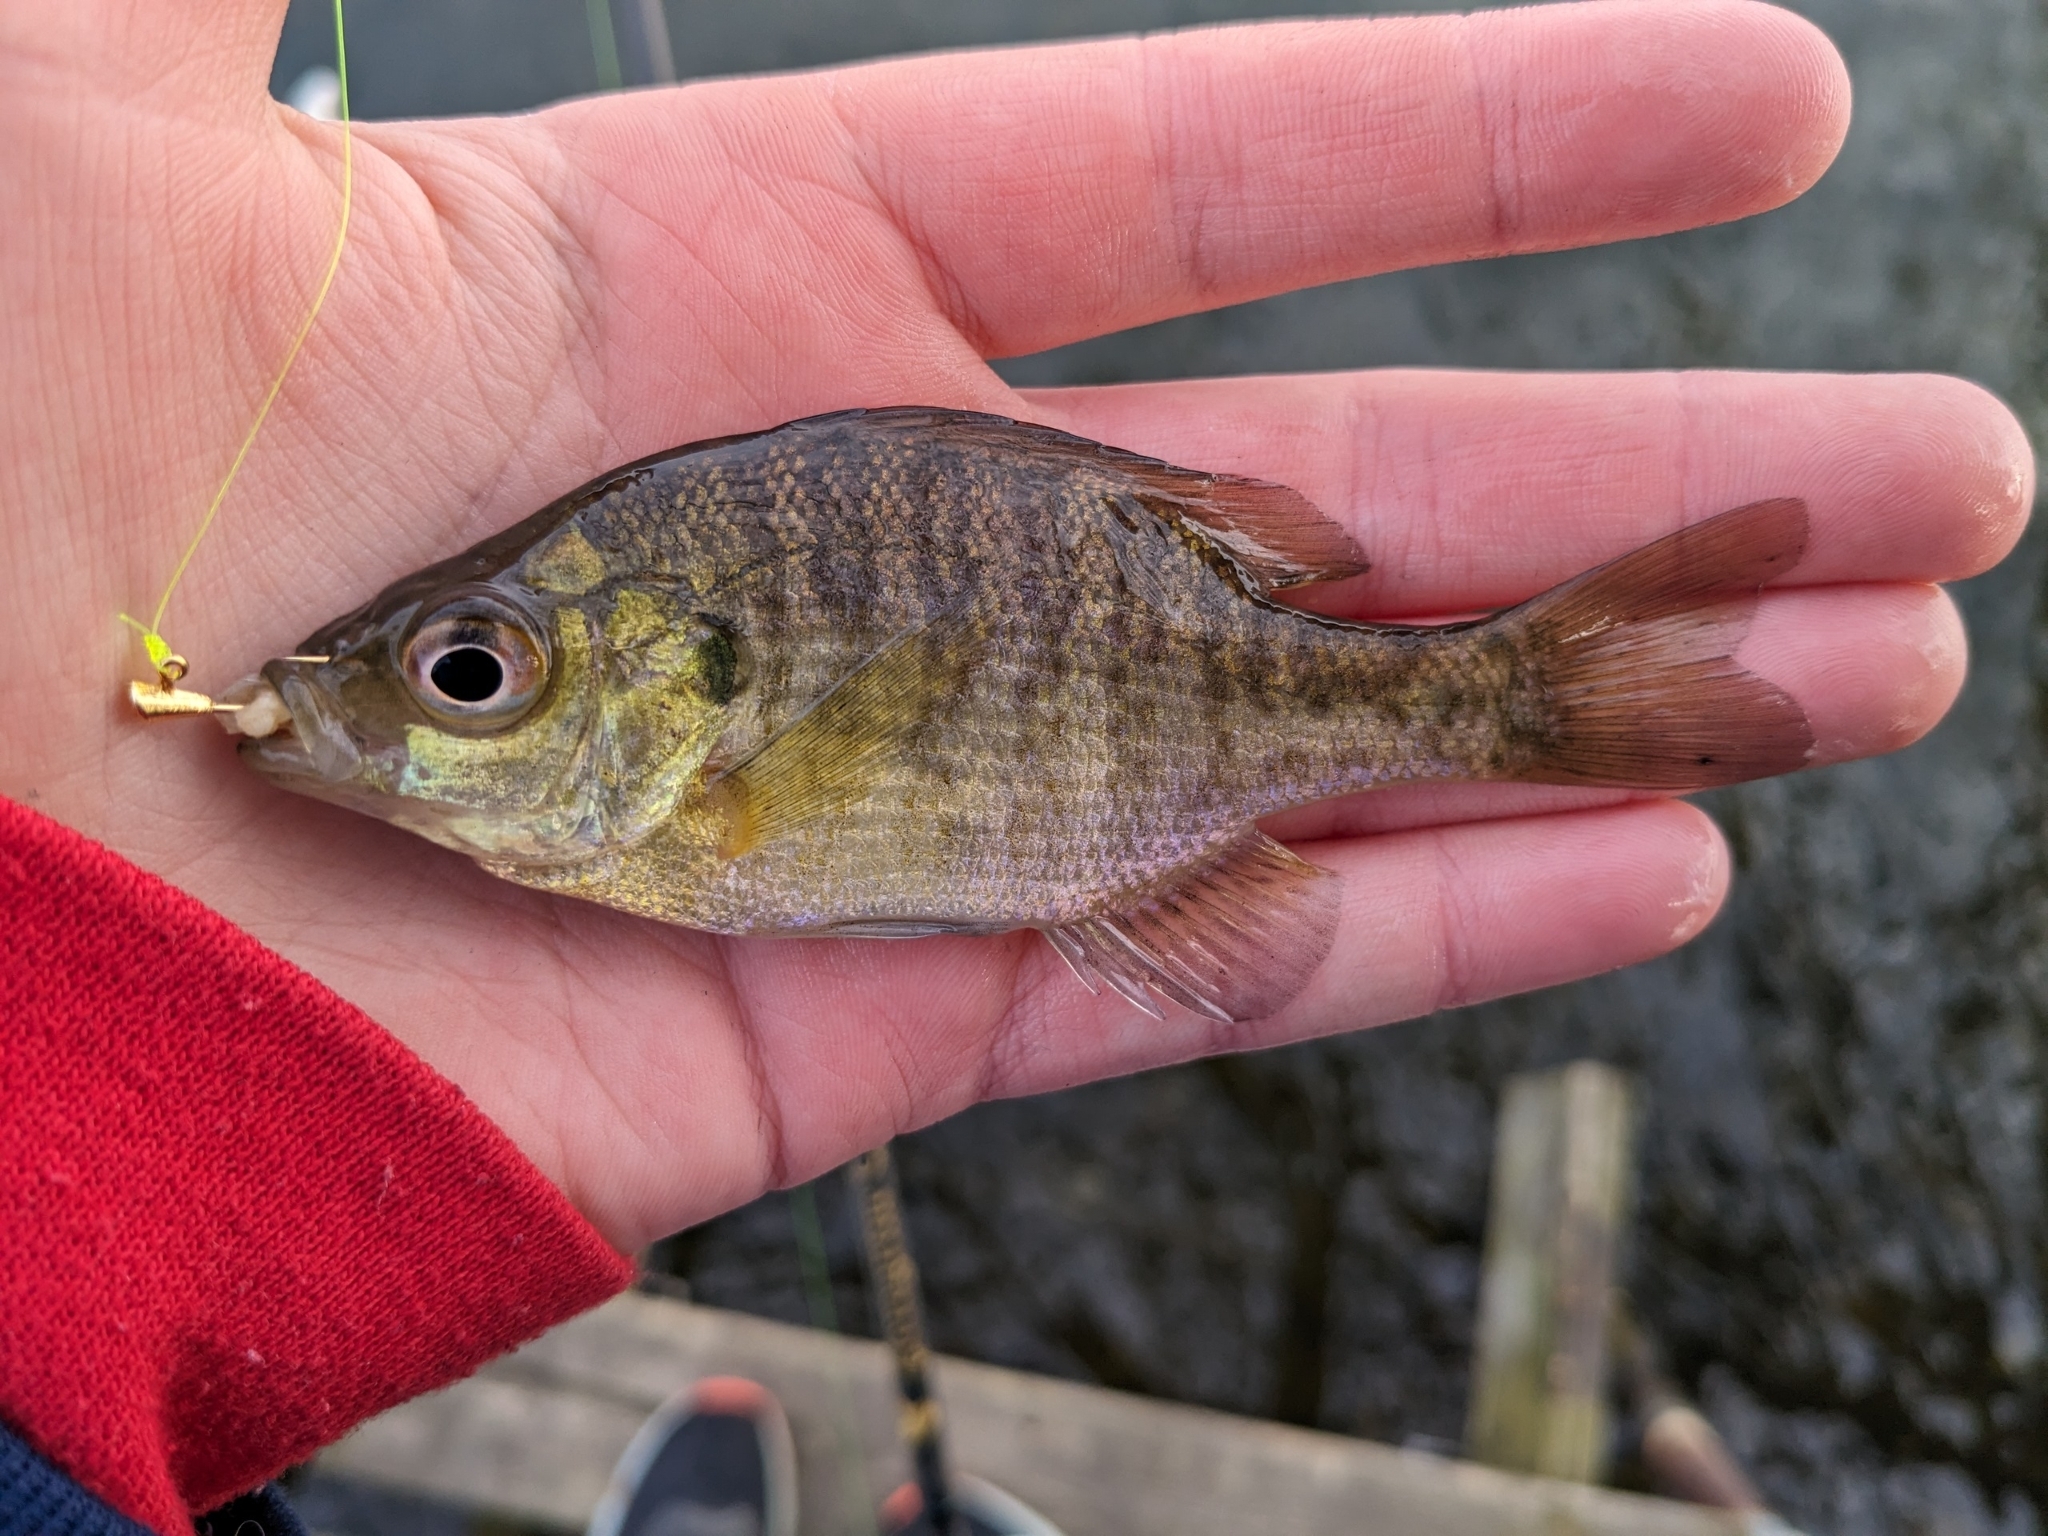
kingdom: Animalia
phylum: Chordata
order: Perciformes
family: Centrarchidae
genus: Lepomis
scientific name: Lepomis macrochirus
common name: Bluegill
